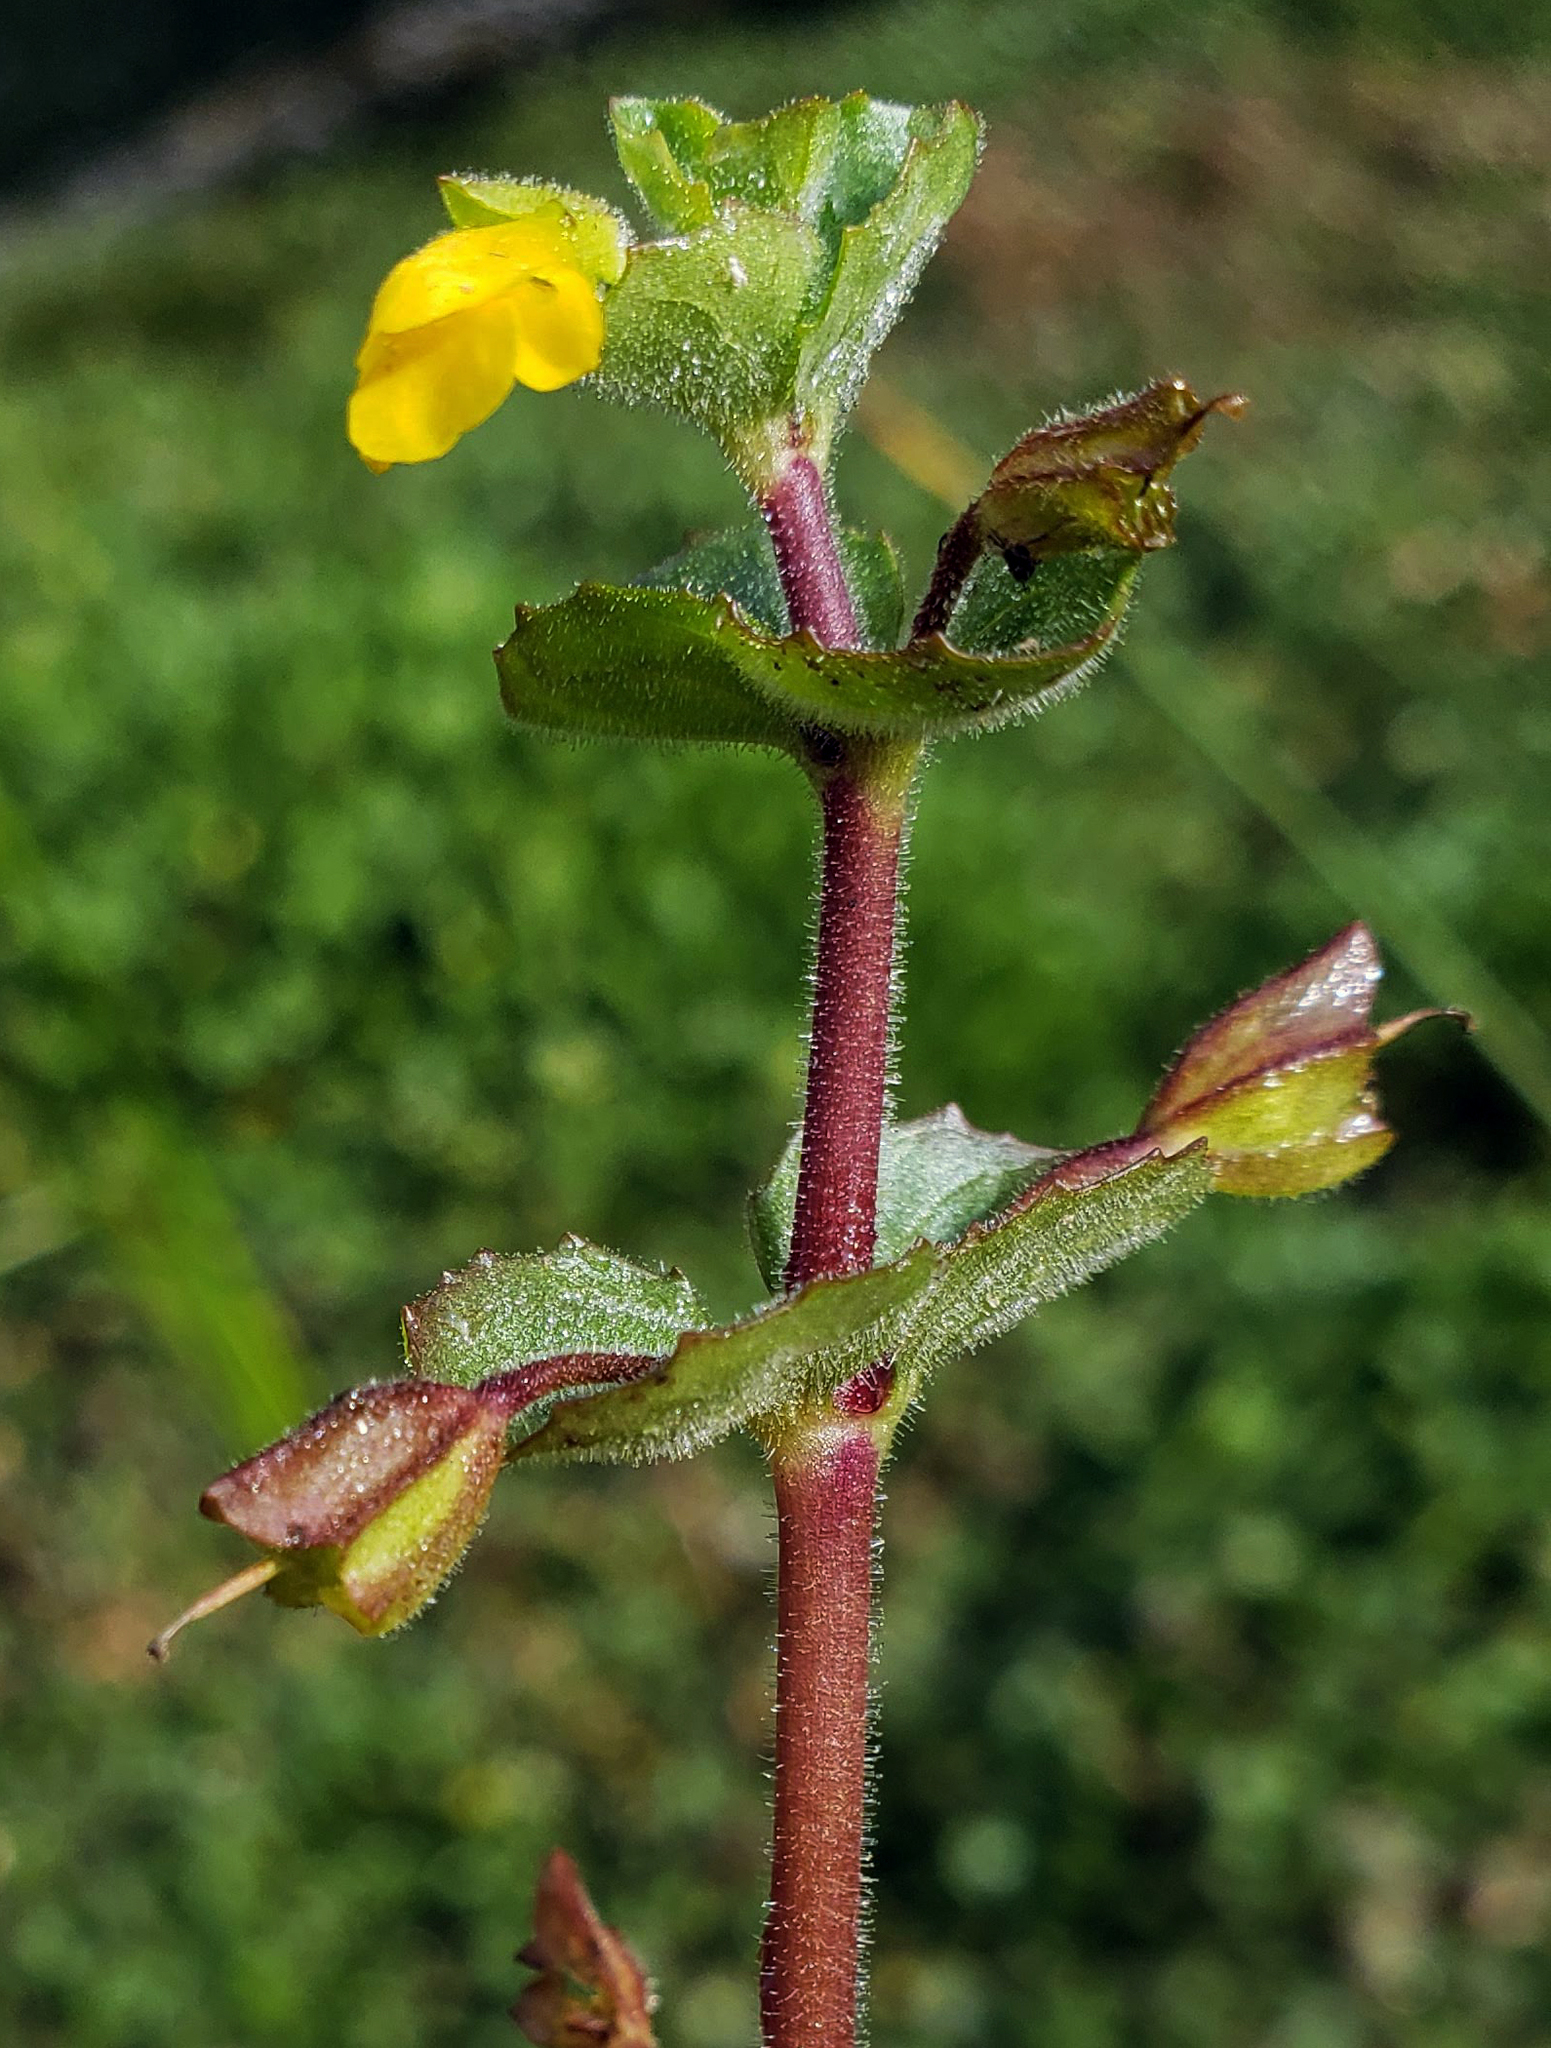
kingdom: Plantae
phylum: Tracheophyta
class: Magnoliopsida
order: Lamiales
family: Phrymaceae
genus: Erythranthe
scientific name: Erythranthe geyeri
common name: Geyer's monkeyflower
